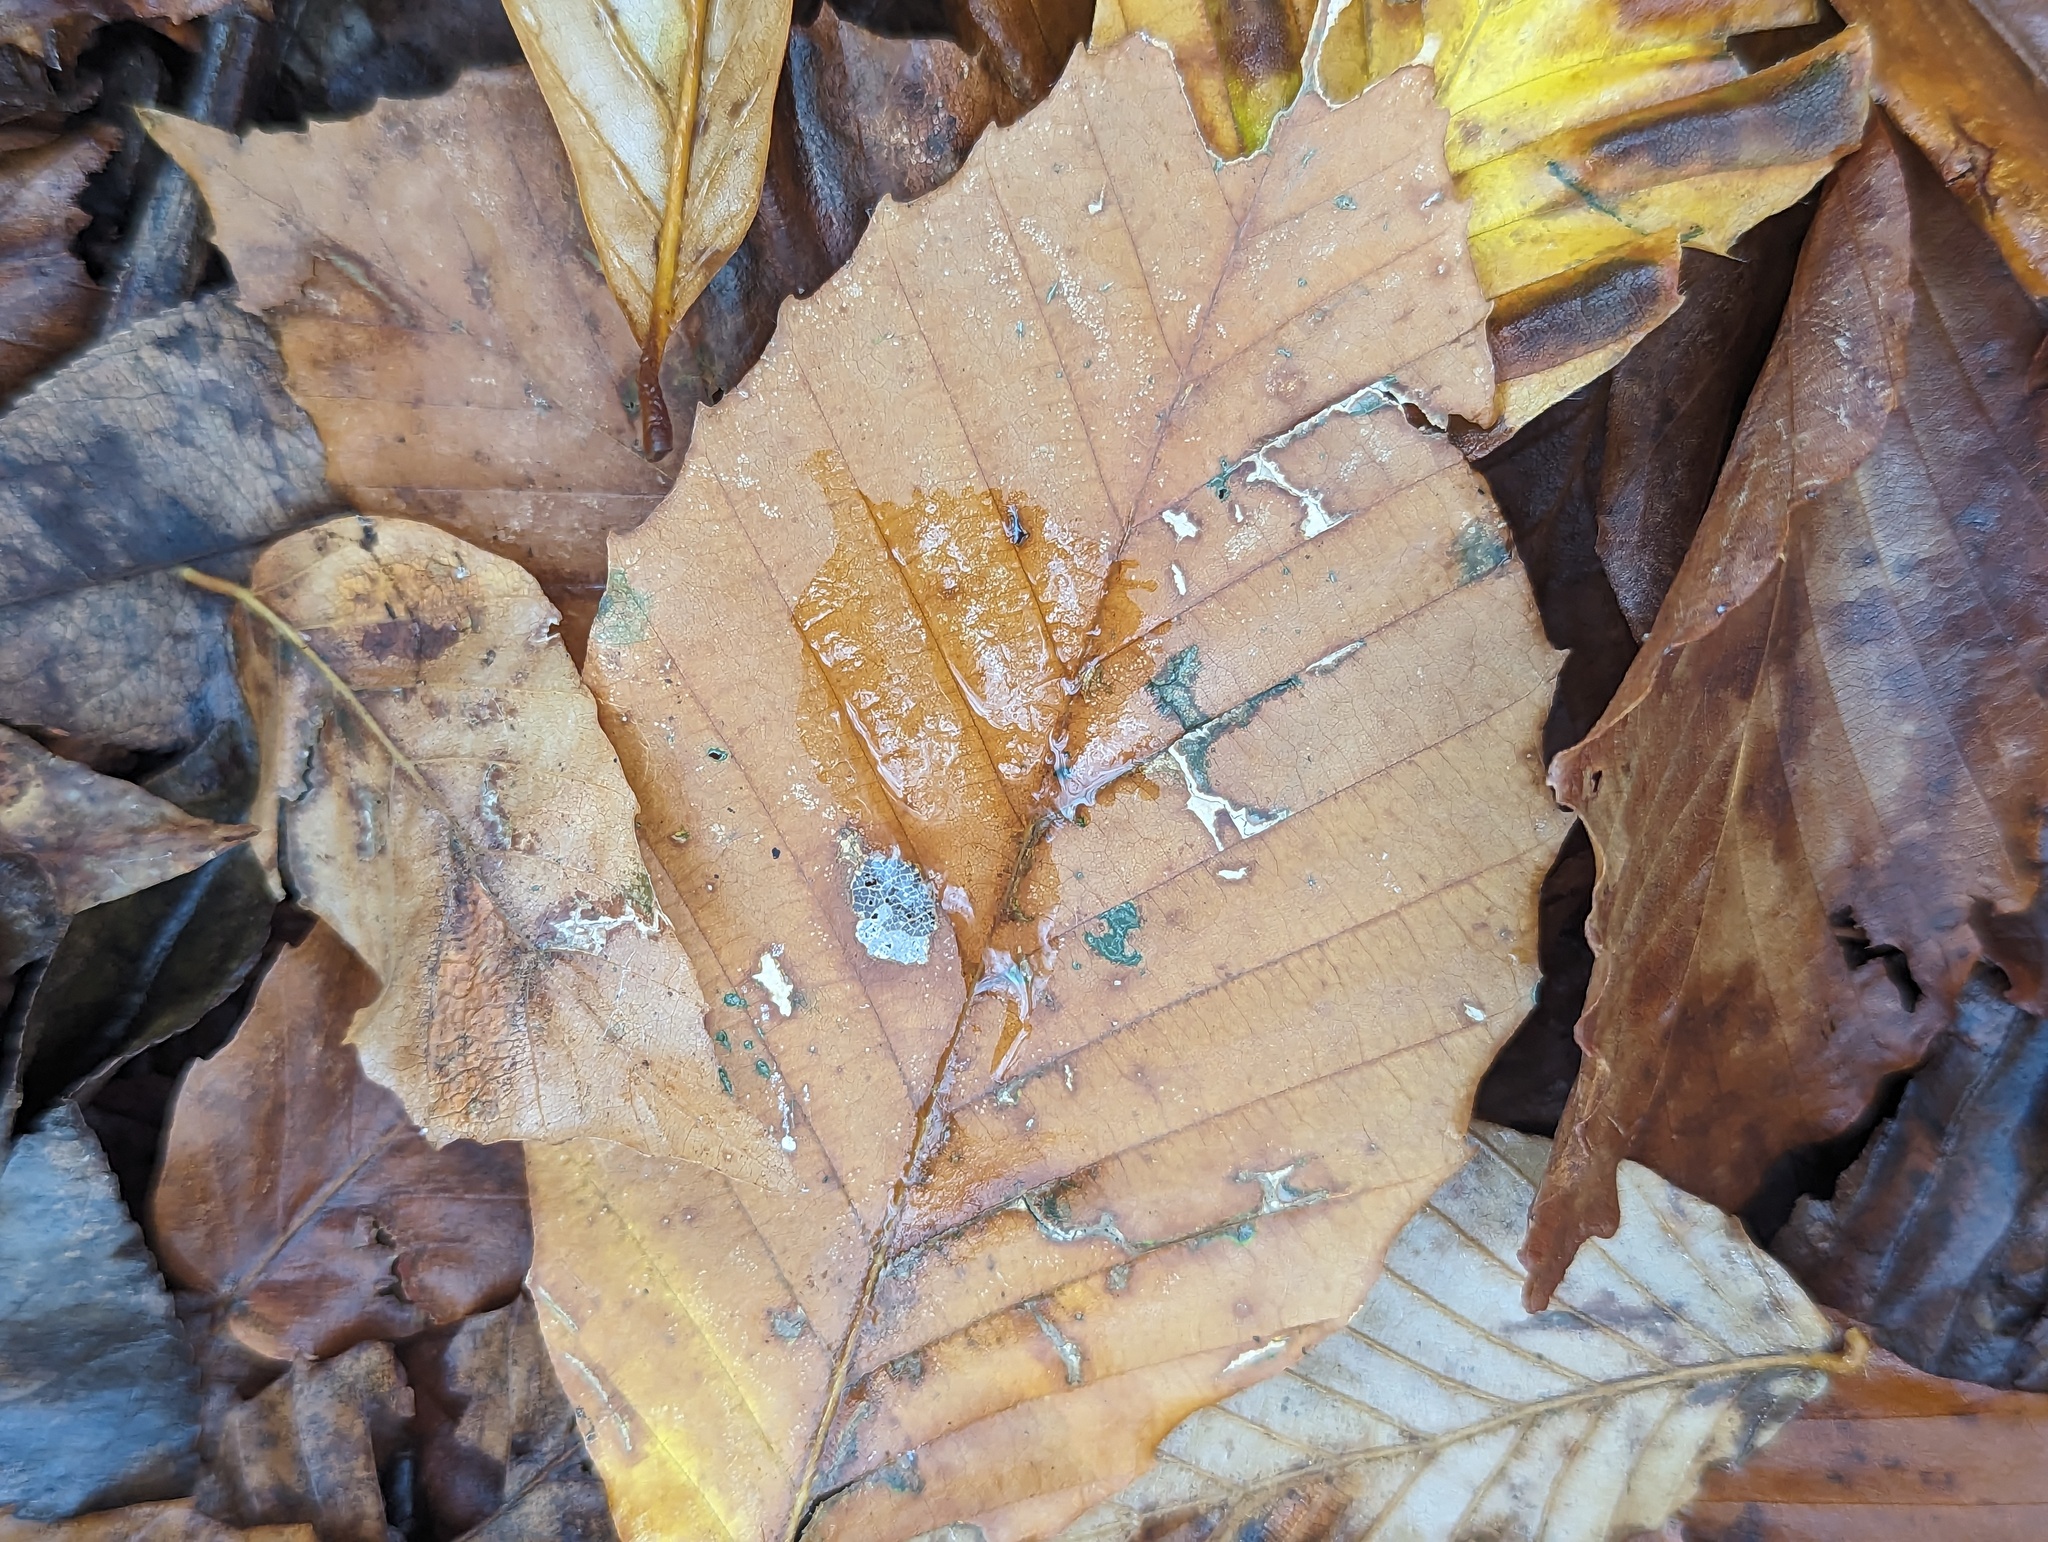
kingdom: Plantae
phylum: Tracheophyta
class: Magnoliopsida
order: Fagales
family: Fagaceae
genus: Fagus
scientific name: Fagus grandifolia
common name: American beech
